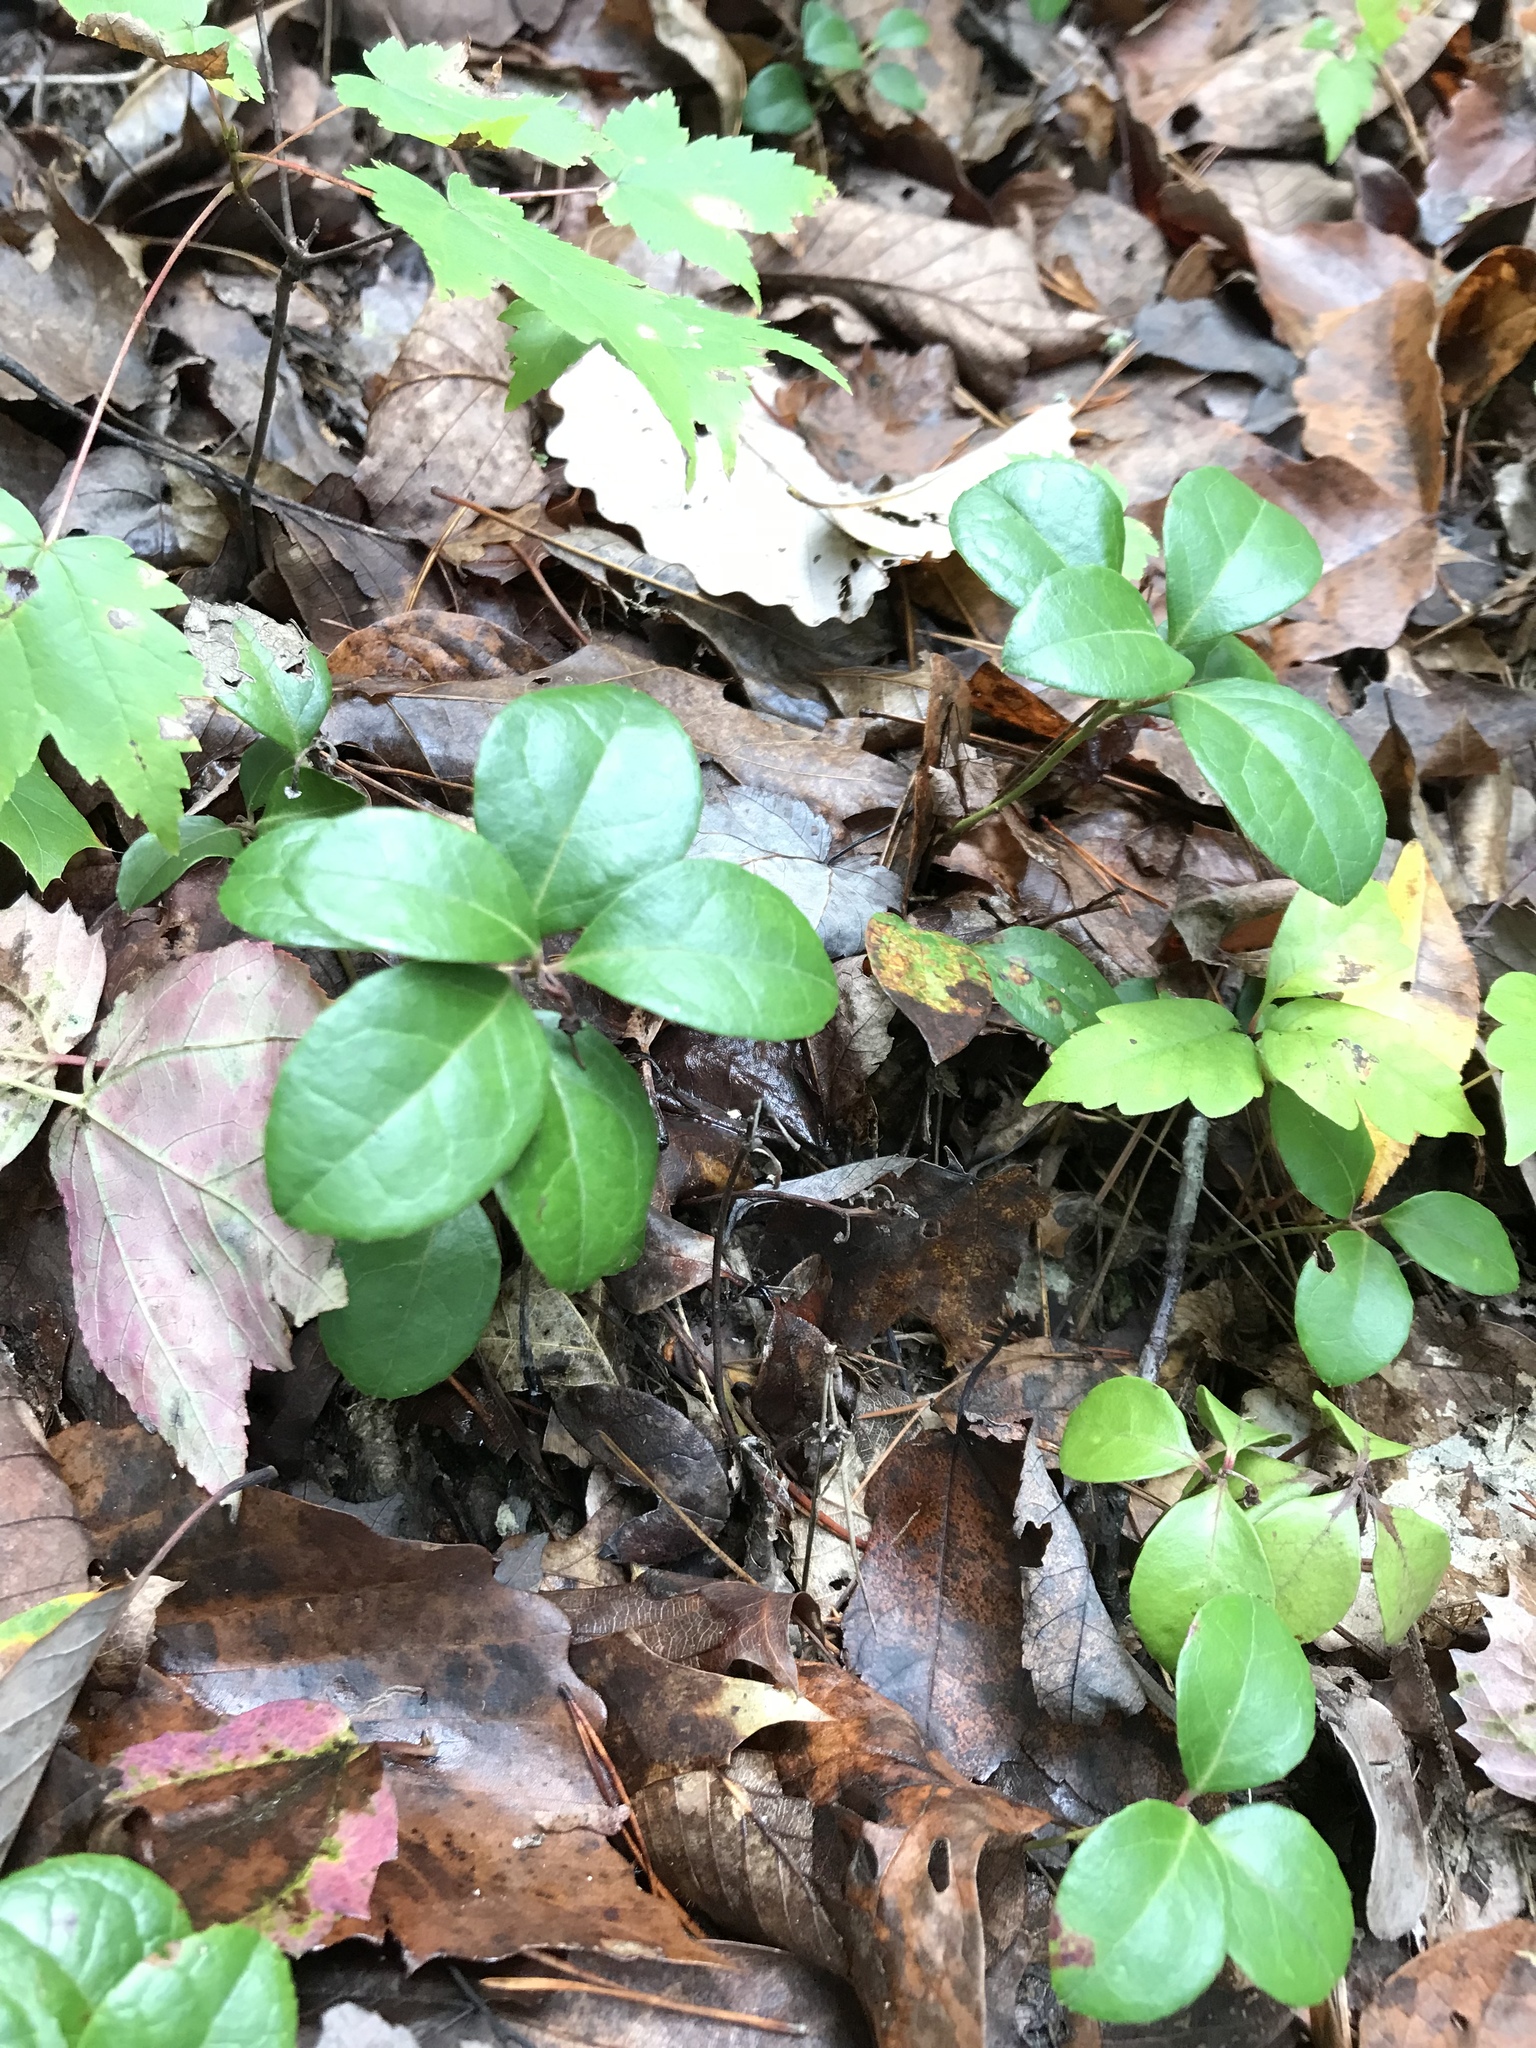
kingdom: Plantae
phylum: Tracheophyta
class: Magnoliopsida
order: Ericales
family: Ericaceae
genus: Gaultheria
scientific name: Gaultheria procumbens
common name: Checkerberry
